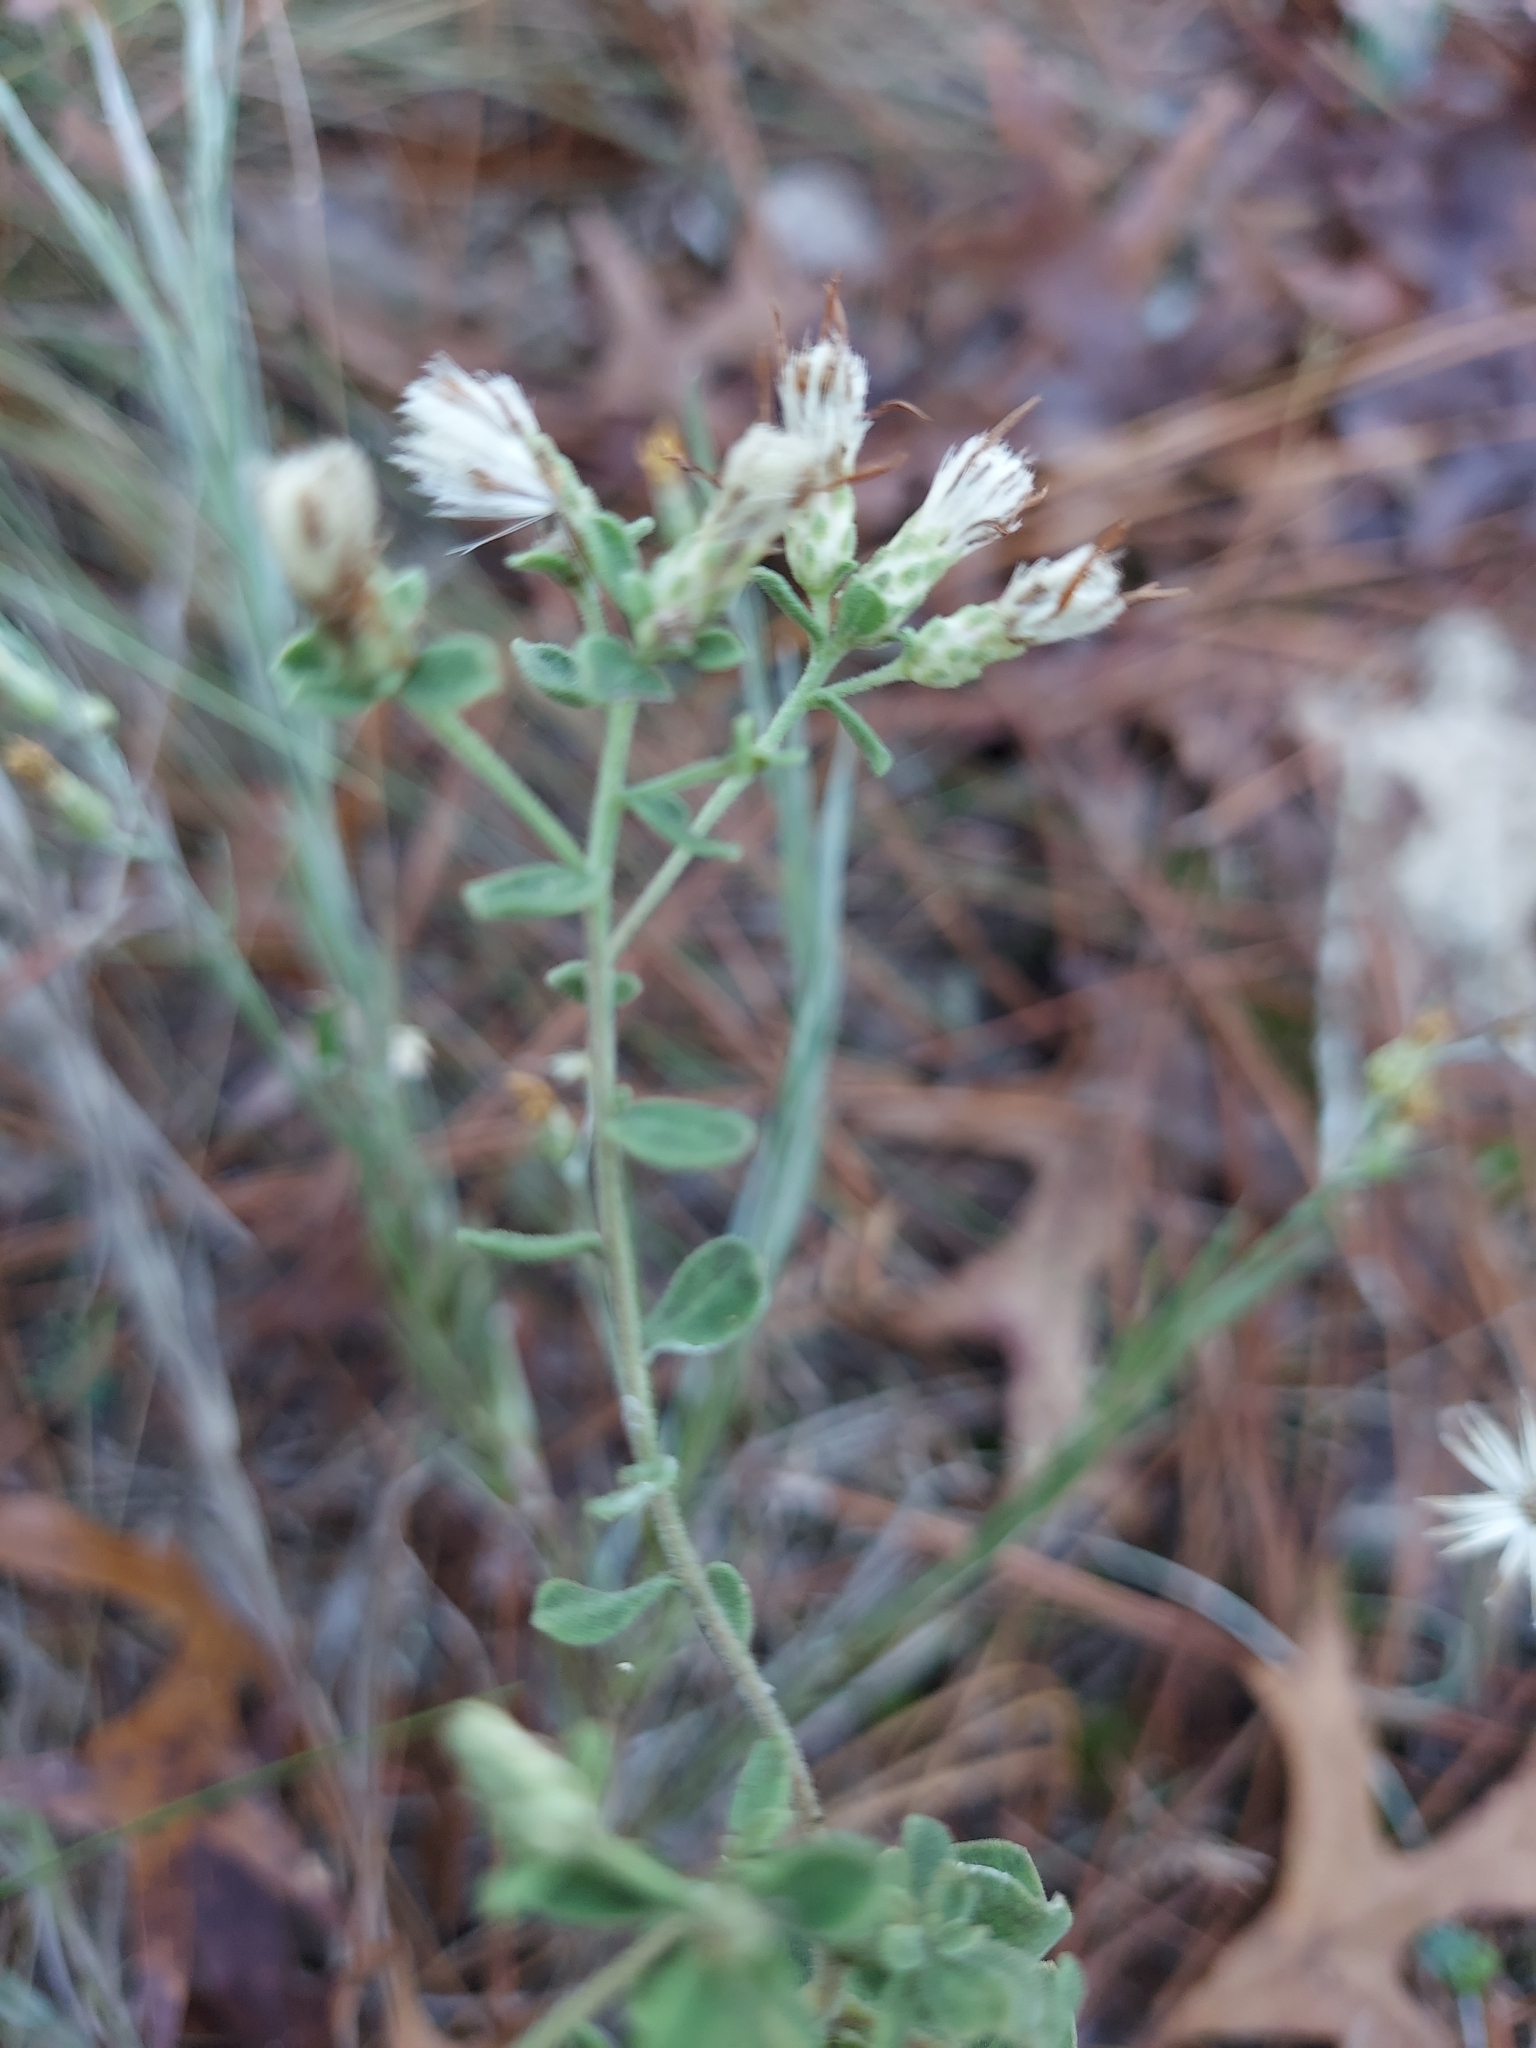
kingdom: Plantae
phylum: Tracheophyta
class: Magnoliopsida
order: Asterales
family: Asteraceae
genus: Sericocarpus
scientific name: Sericocarpus tortifolius
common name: Dixie aster
